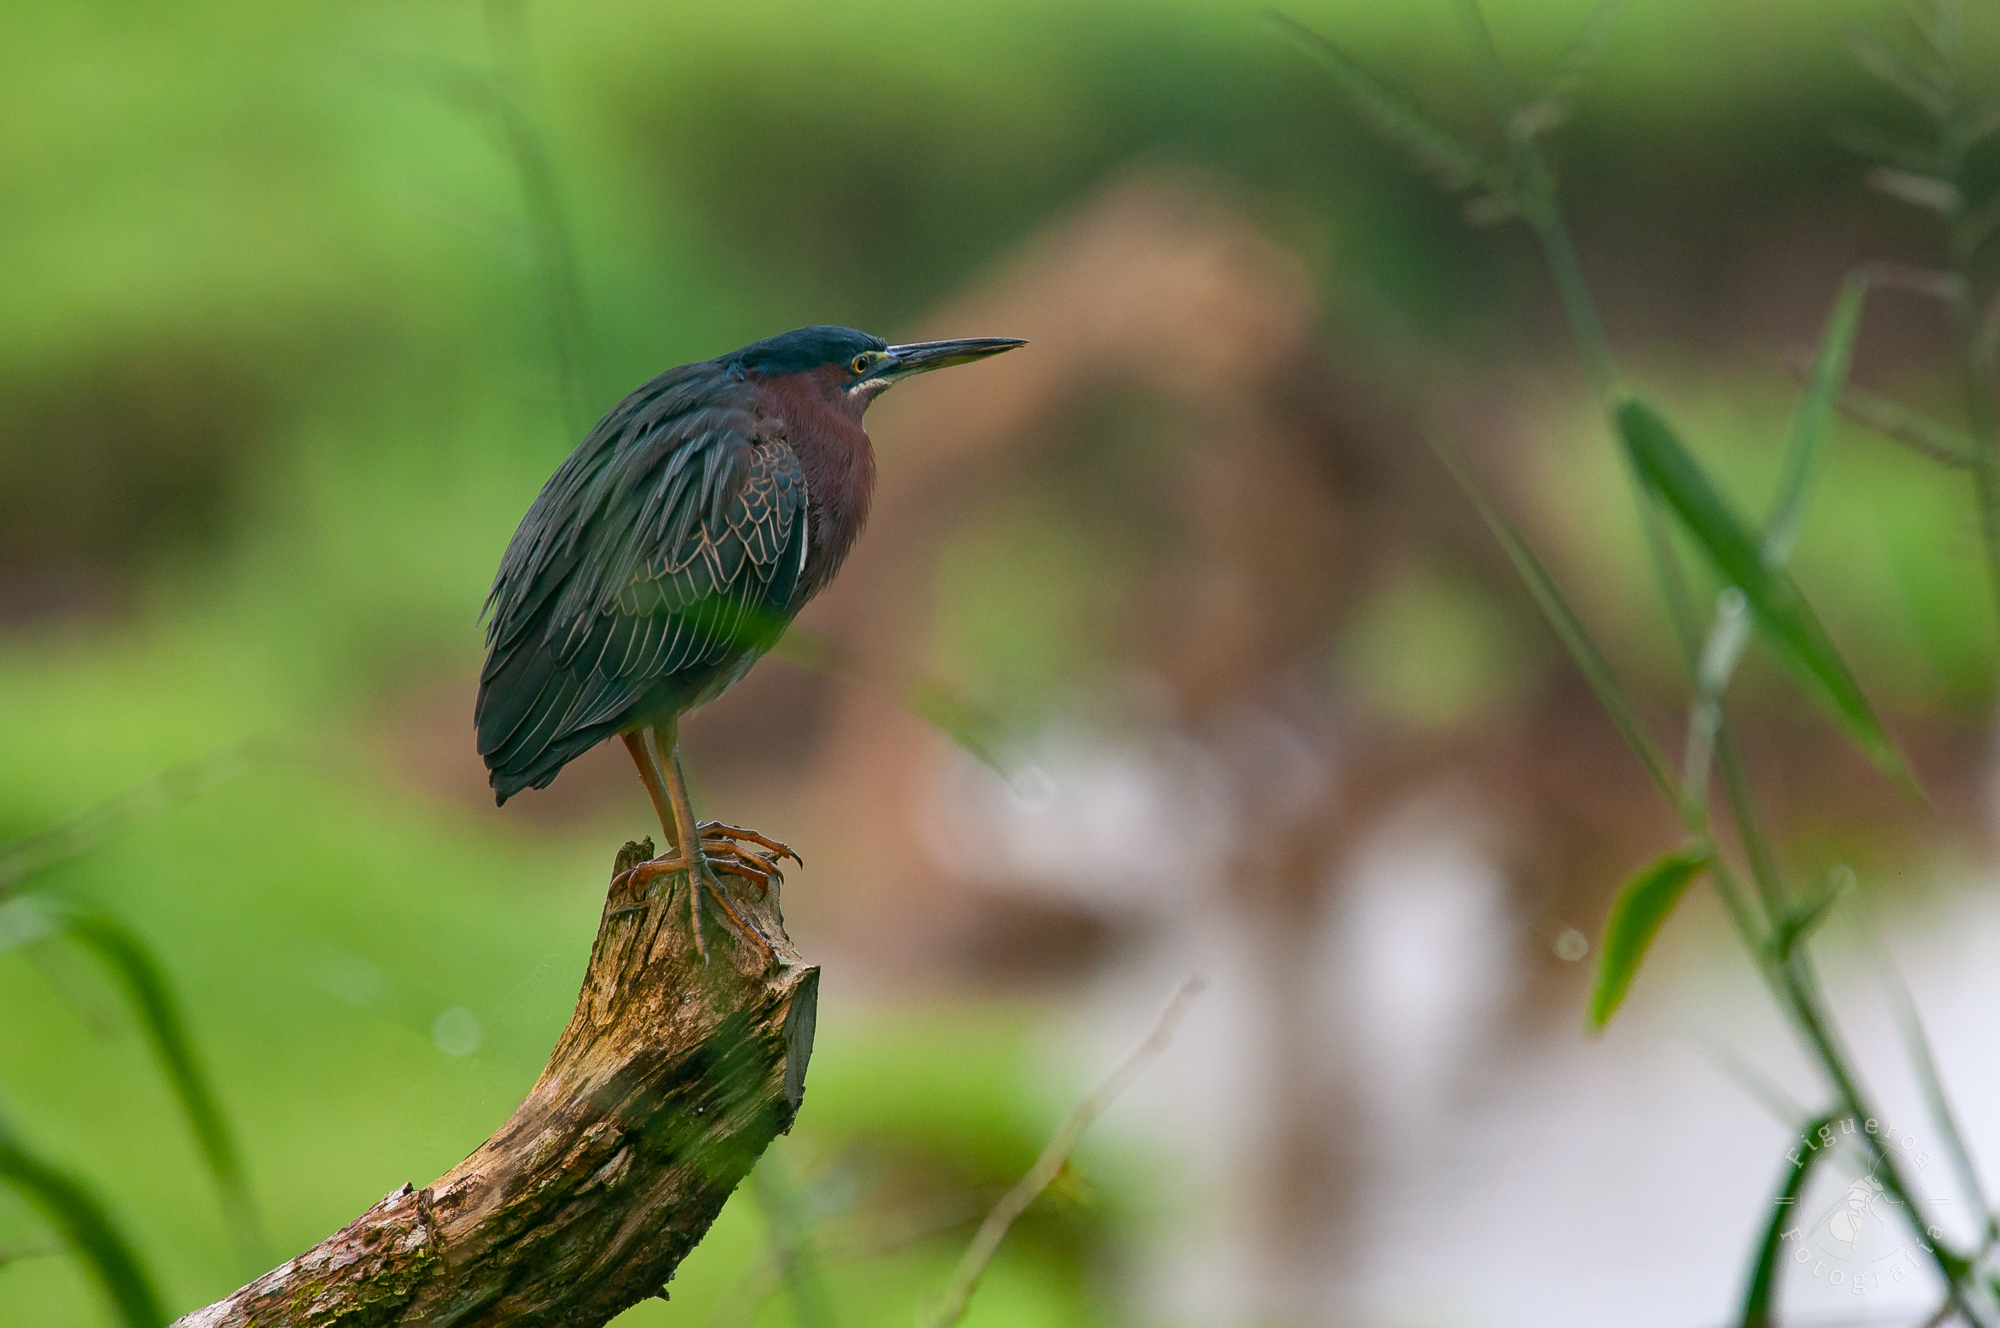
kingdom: Animalia
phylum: Chordata
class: Aves
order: Pelecaniformes
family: Ardeidae
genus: Butorides
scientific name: Butorides virescens
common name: Green heron
